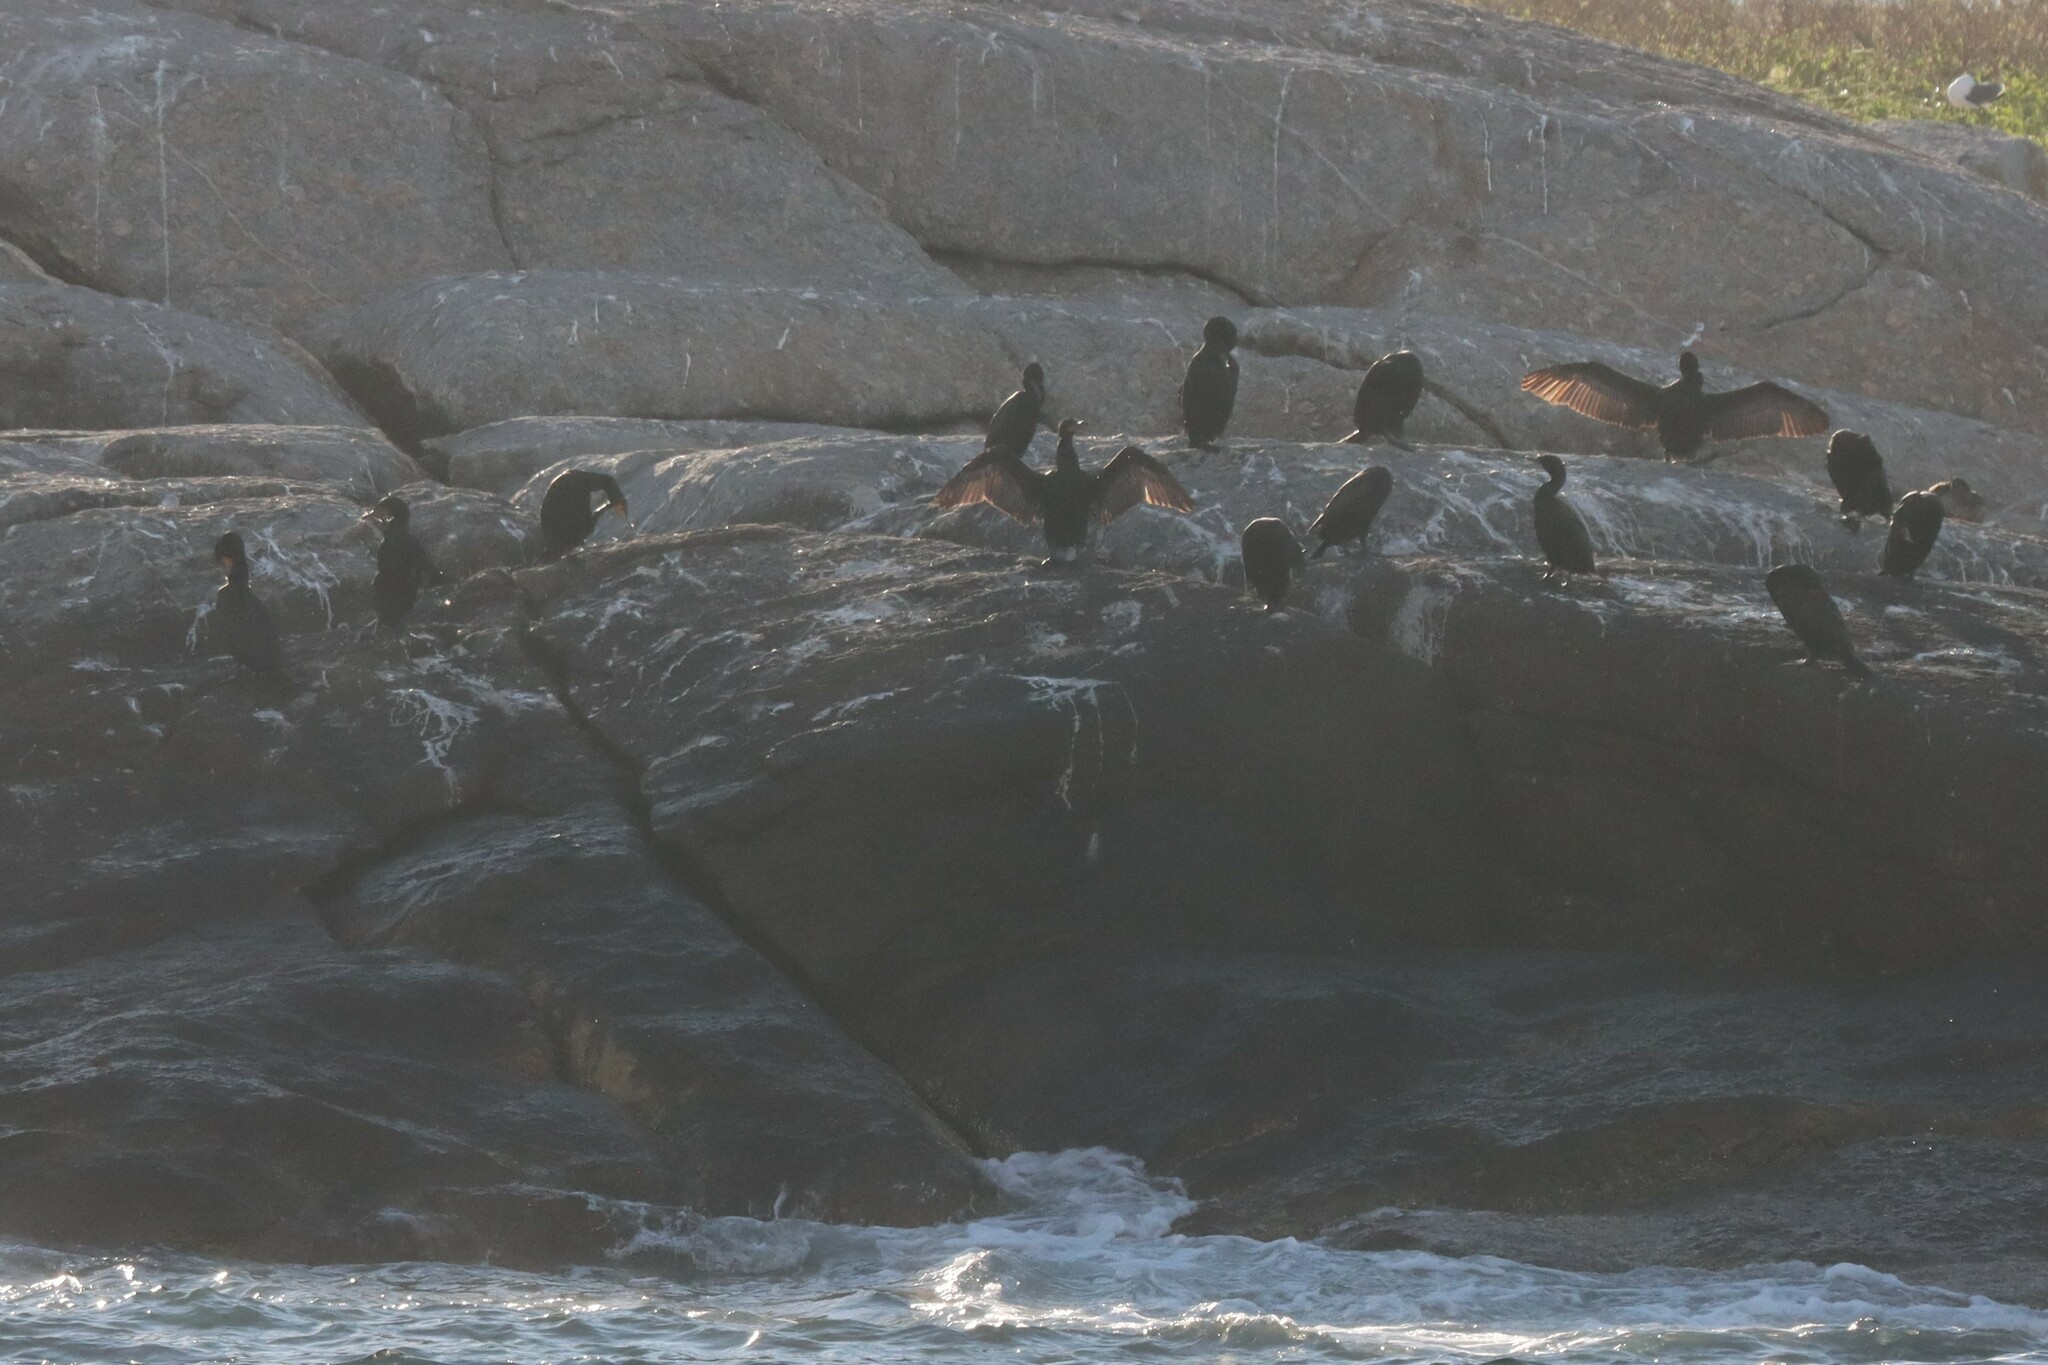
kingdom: Animalia
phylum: Chordata
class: Aves
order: Suliformes
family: Phalacrocoracidae
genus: Phalacrocorax
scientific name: Phalacrocorax auritus
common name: Double-crested cormorant
